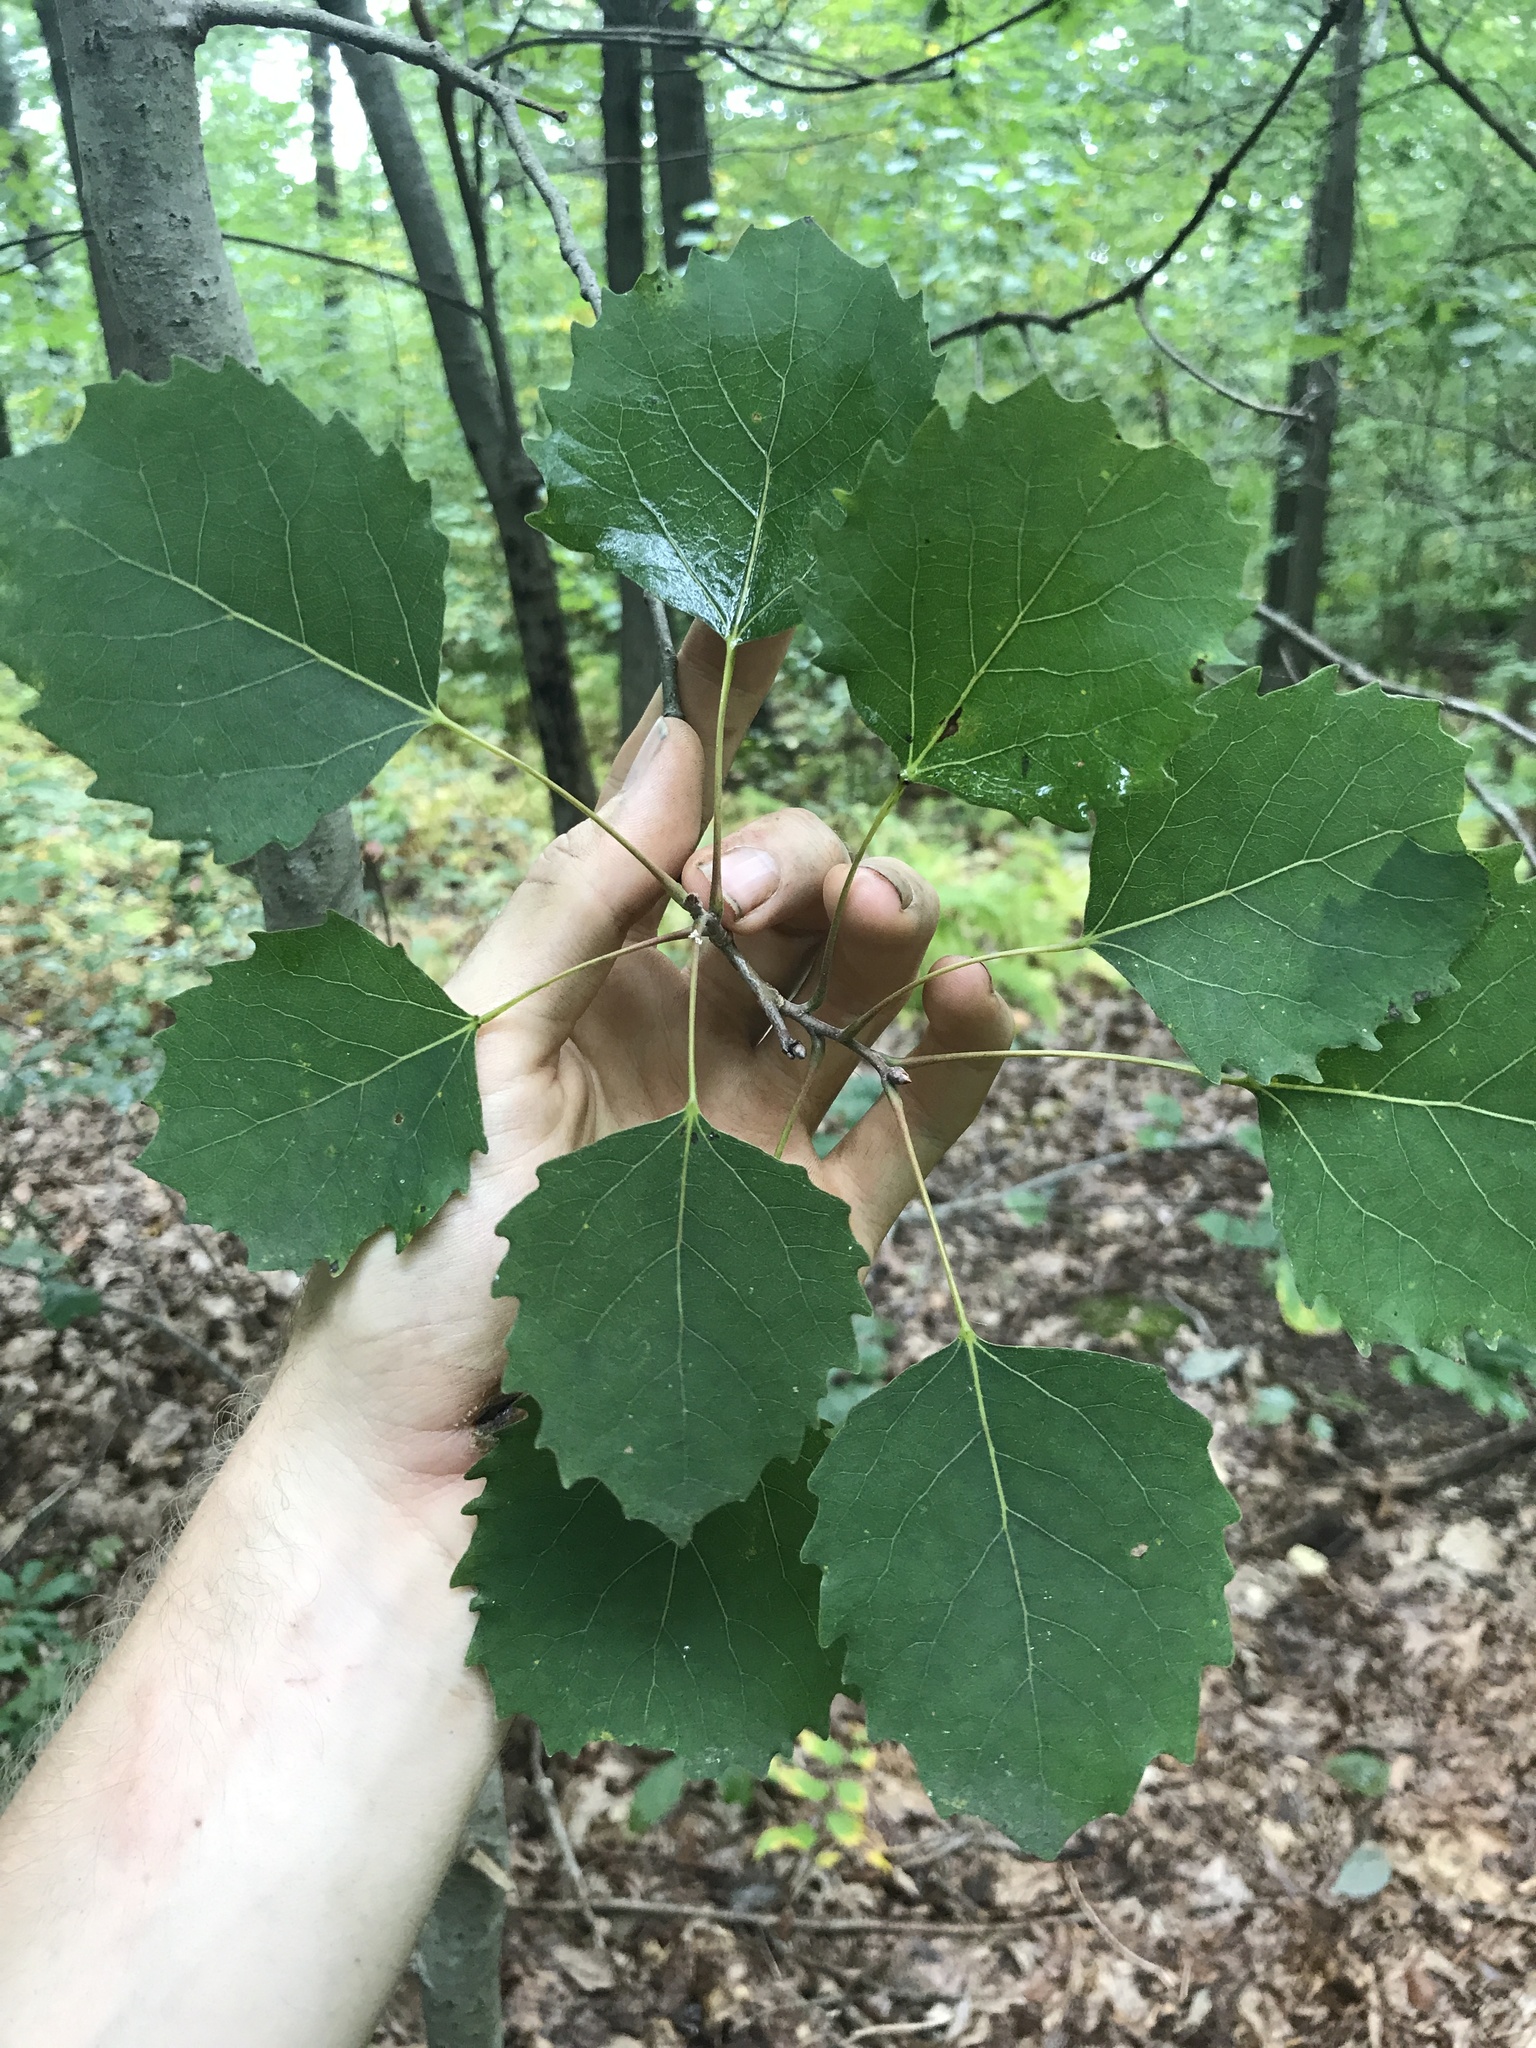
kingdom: Plantae
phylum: Tracheophyta
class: Magnoliopsida
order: Malpighiales
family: Salicaceae
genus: Populus
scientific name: Populus grandidentata
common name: Bigtooth aspen
